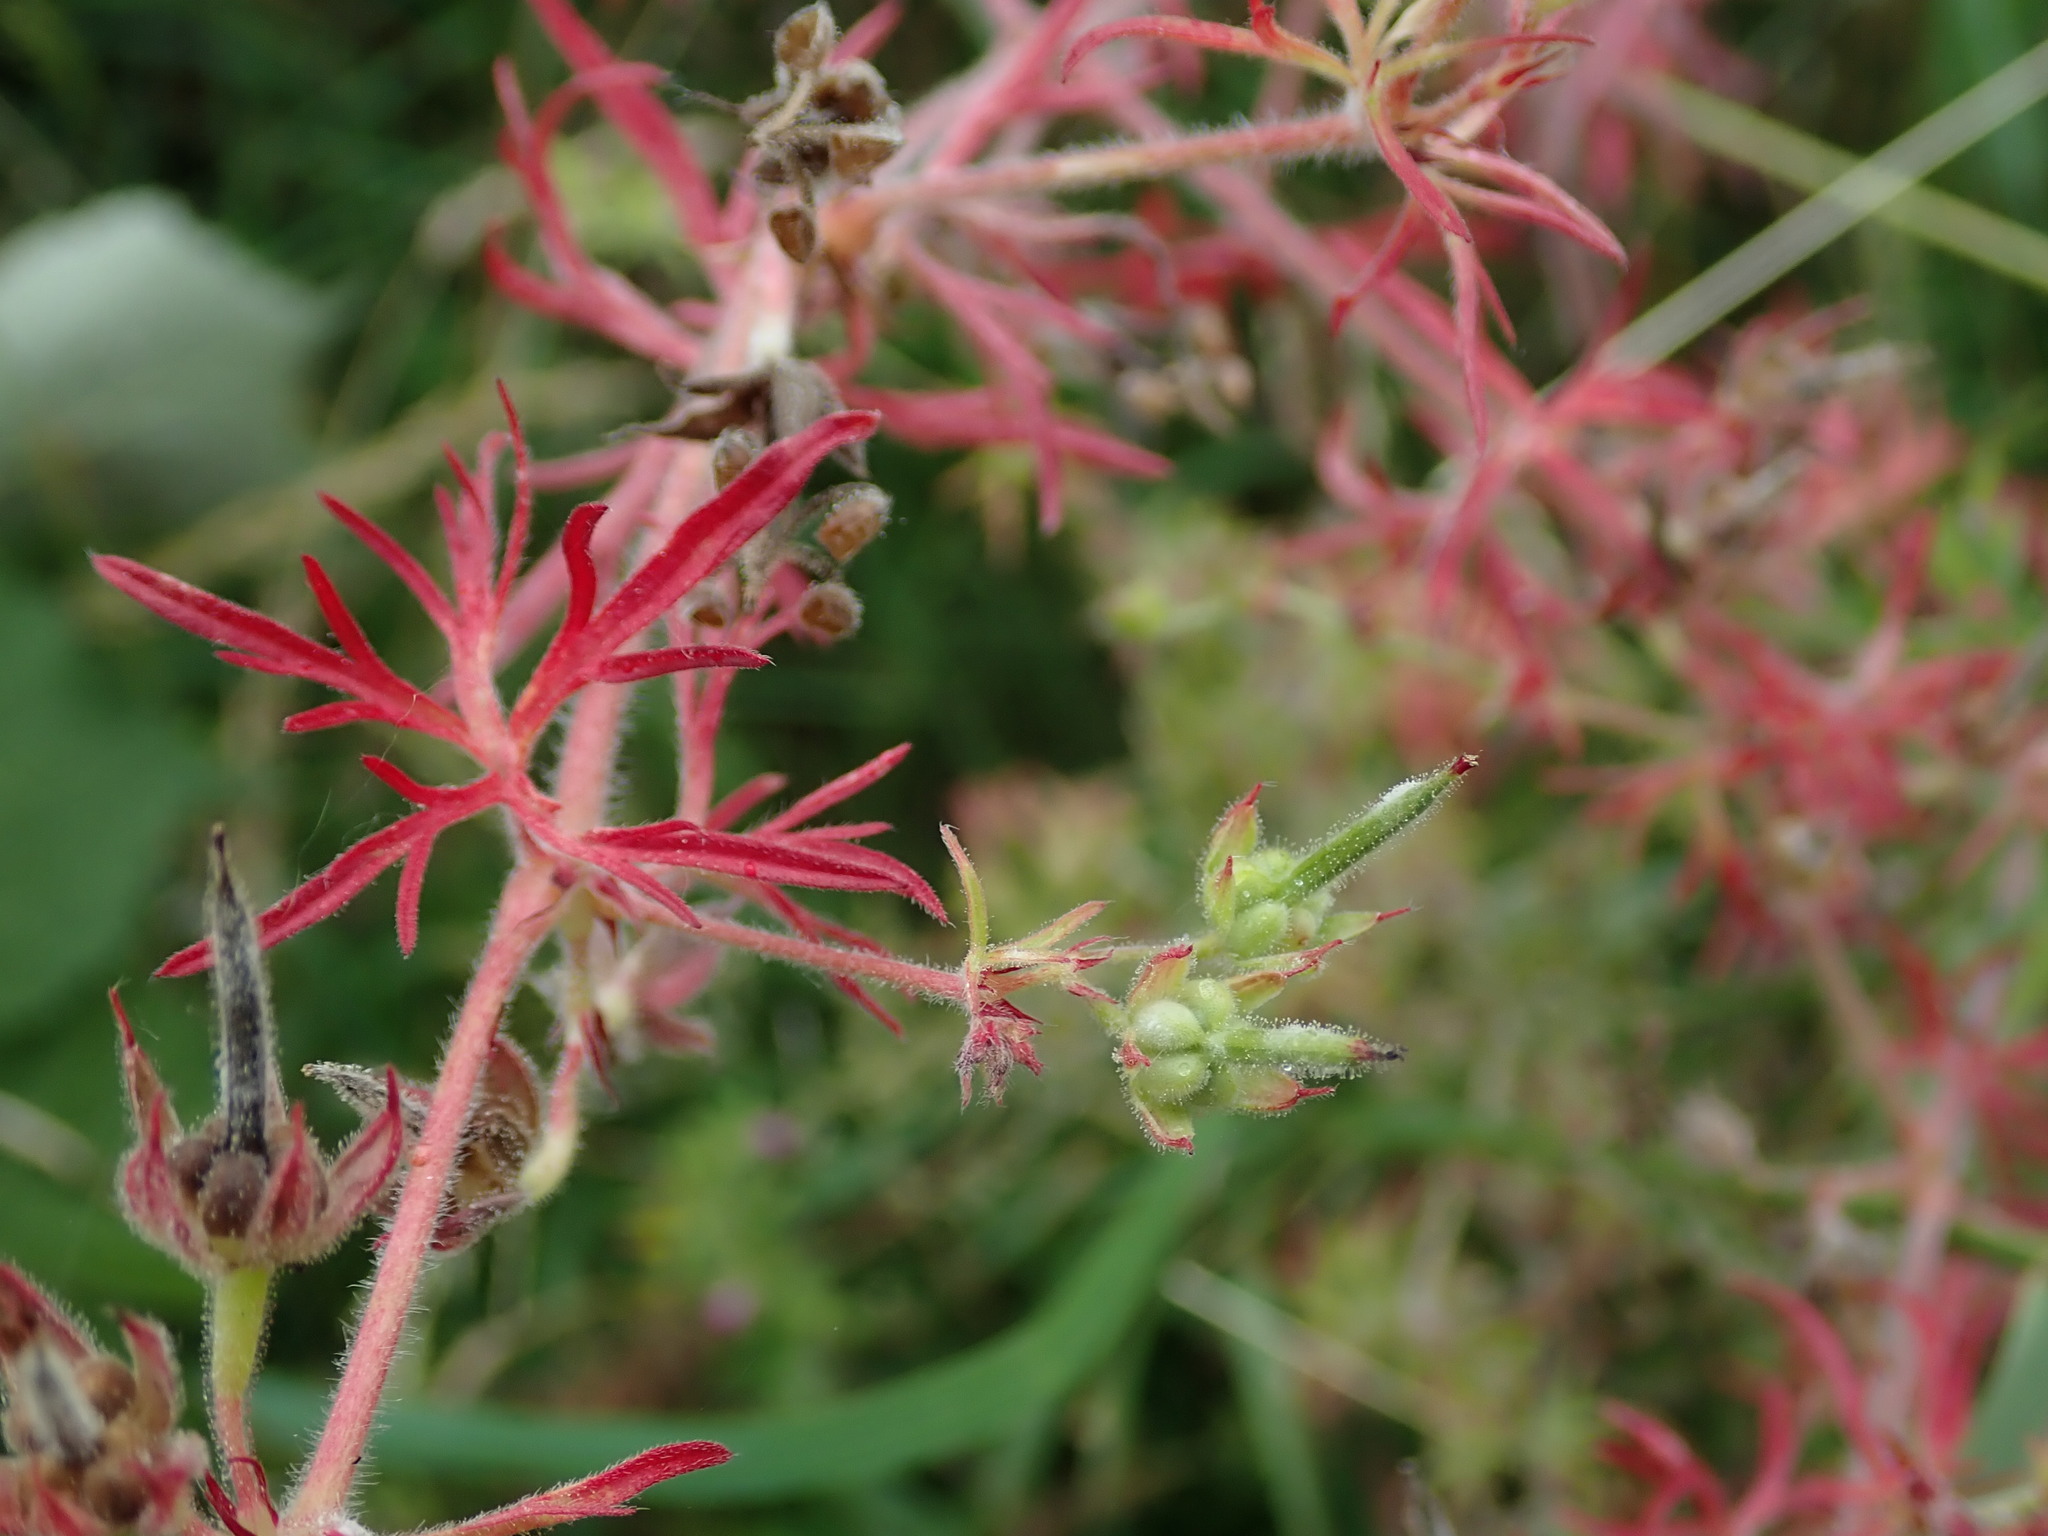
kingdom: Plantae
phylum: Tracheophyta
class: Magnoliopsida
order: Geraniales
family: Geraniaceae
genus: Geranium
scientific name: Geranium dissectum
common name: Cut-leaved crane's-bill
